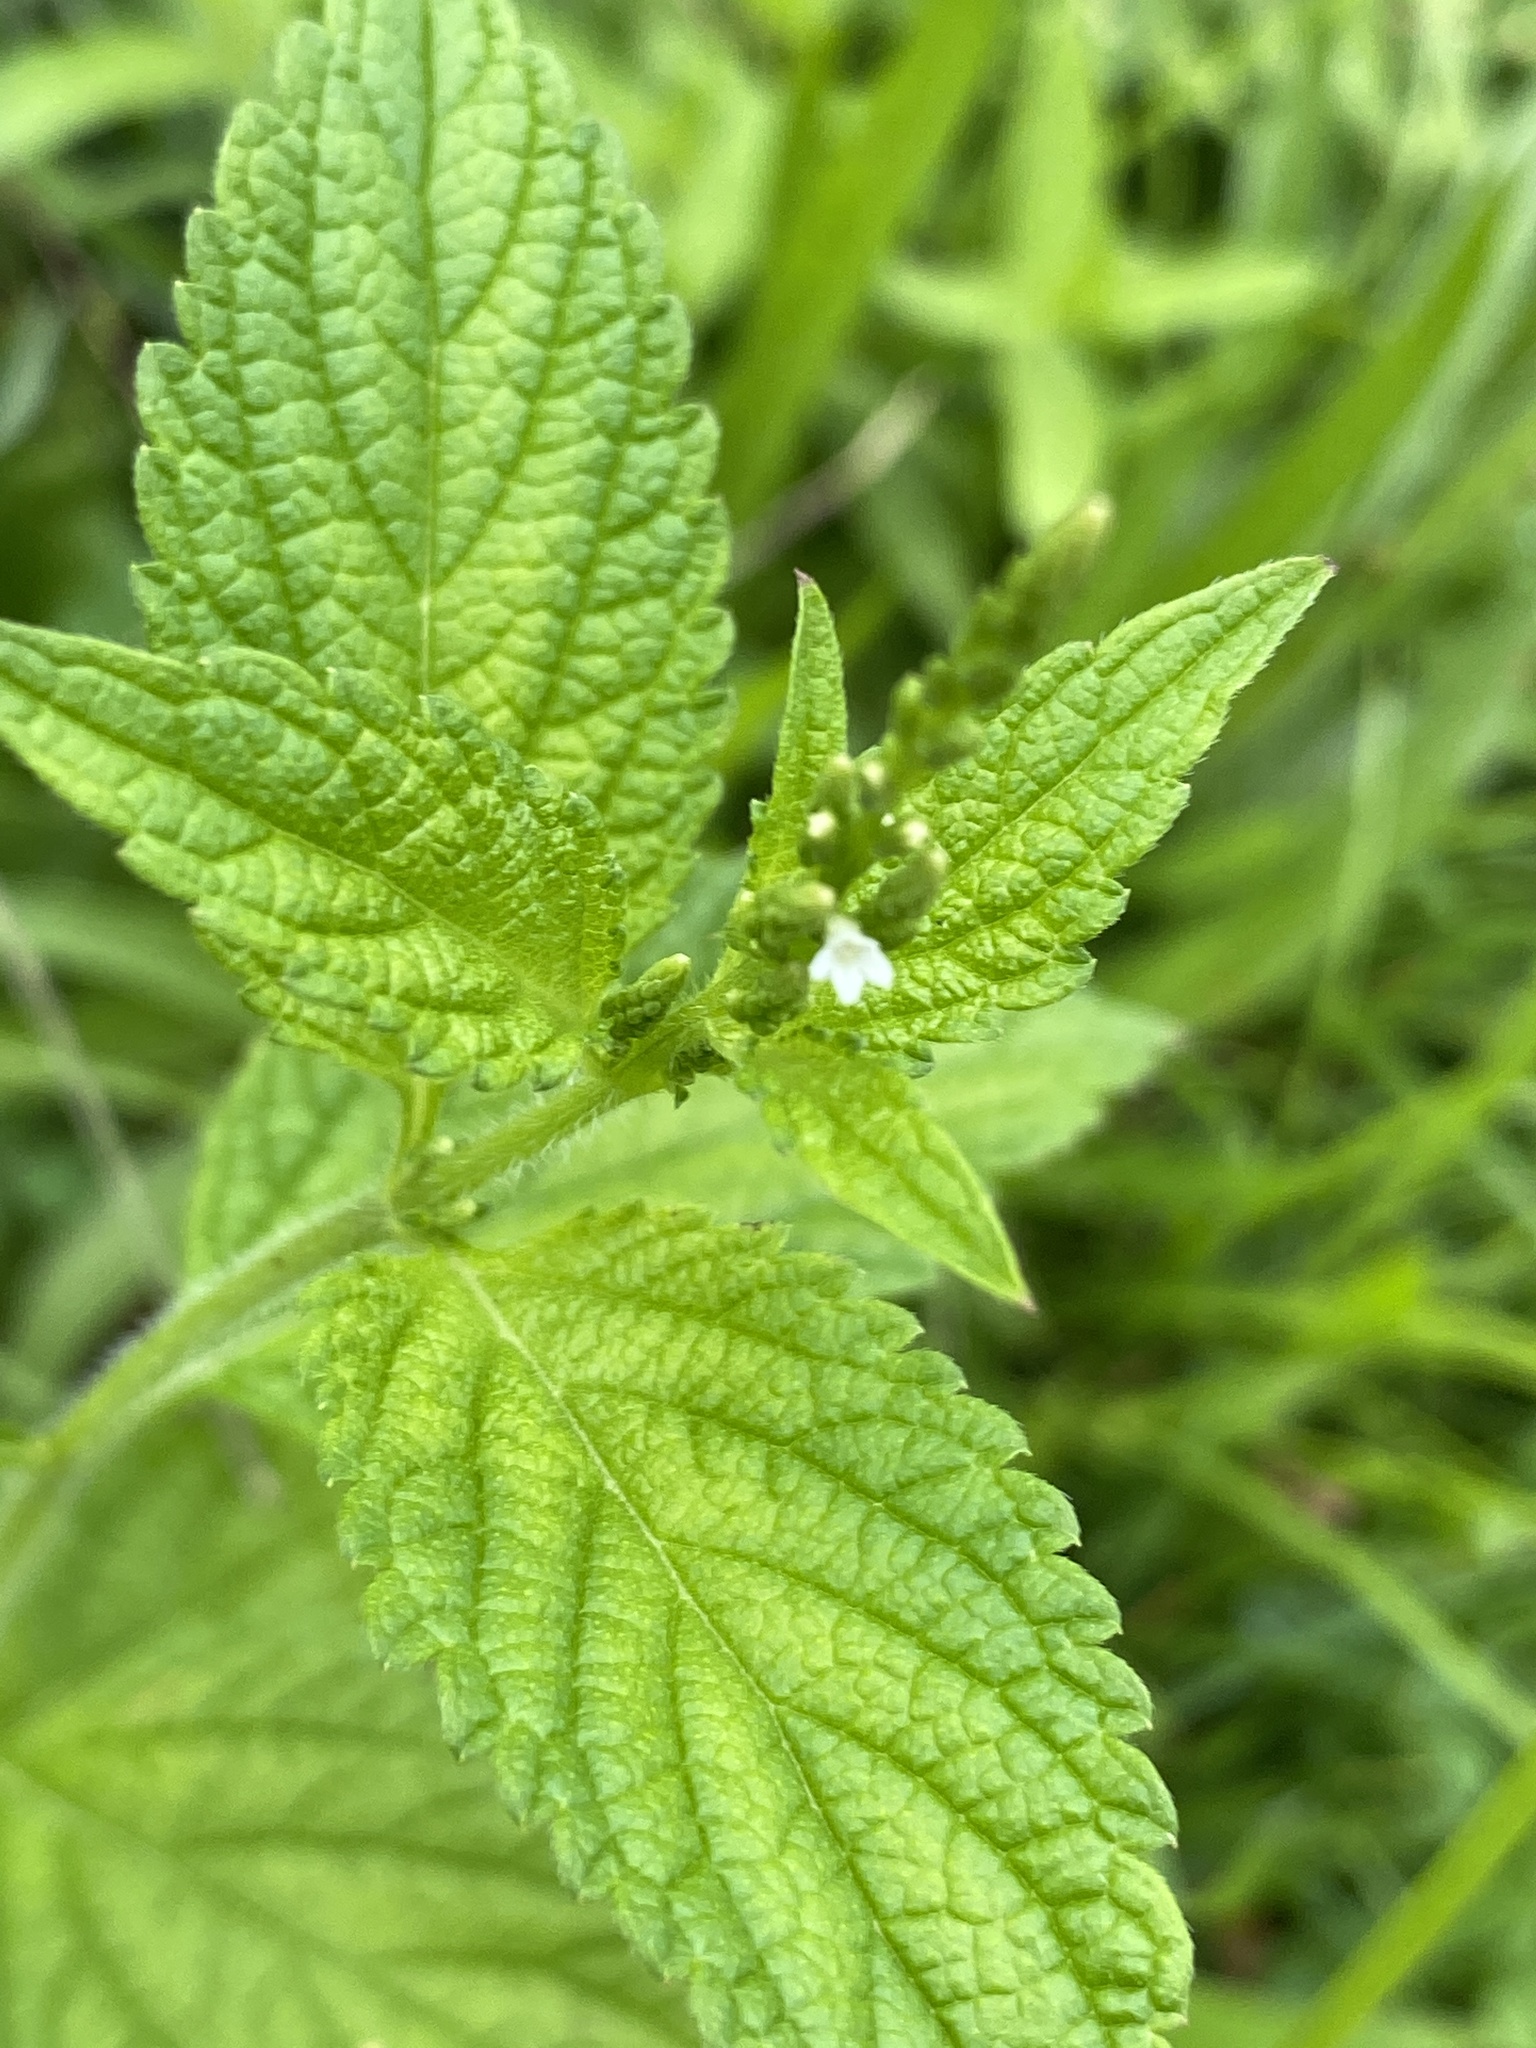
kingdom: Plantae
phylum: Tracheophyta
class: Magnoliopsida
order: Lamiales
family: Verbenaceae
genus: Verbena
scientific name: Verbena urticifolia
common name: Nettle-leaved vervain
